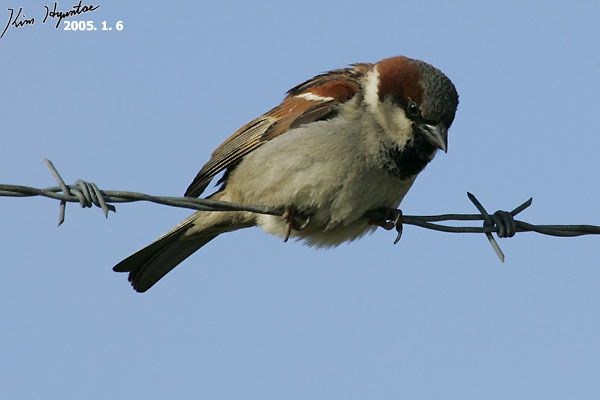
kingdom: Animalia
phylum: Chordata
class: Aves
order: Passeriformes
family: Passeridae
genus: Passer
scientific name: Passer domesticus
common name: House sparrow
